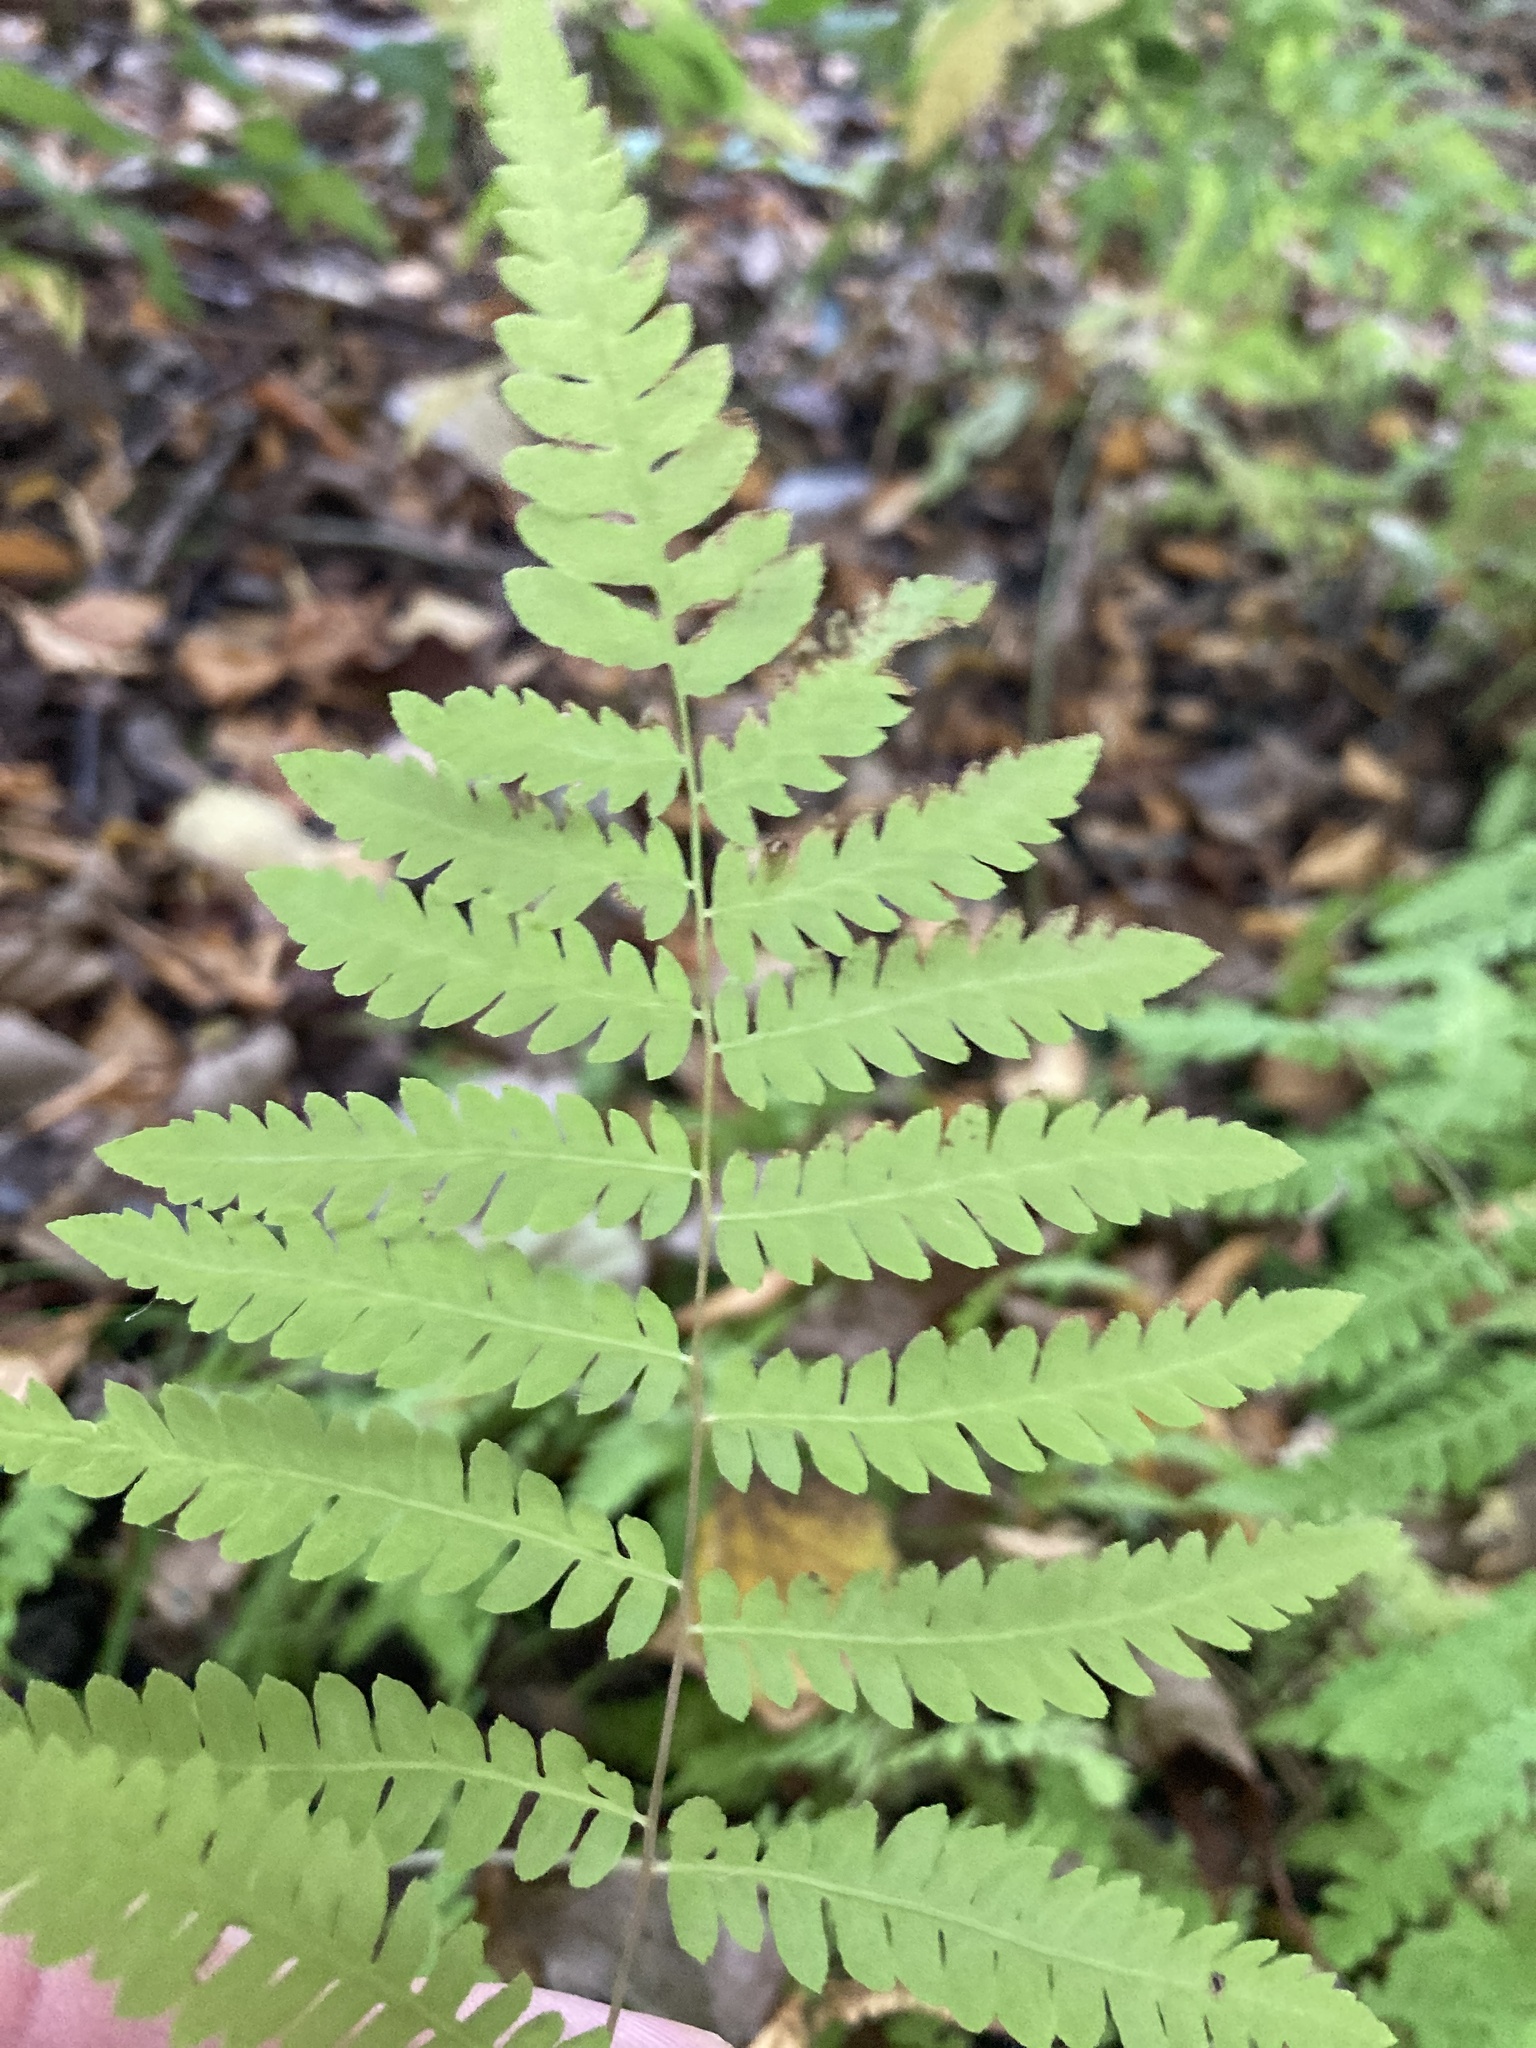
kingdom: Plantae
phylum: Tracheophyta
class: Polypodiopsida
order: Polypodiales
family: Thelypteridaceae
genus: Thelypteris
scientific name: Thelypteris palustris
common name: Marsh fern
